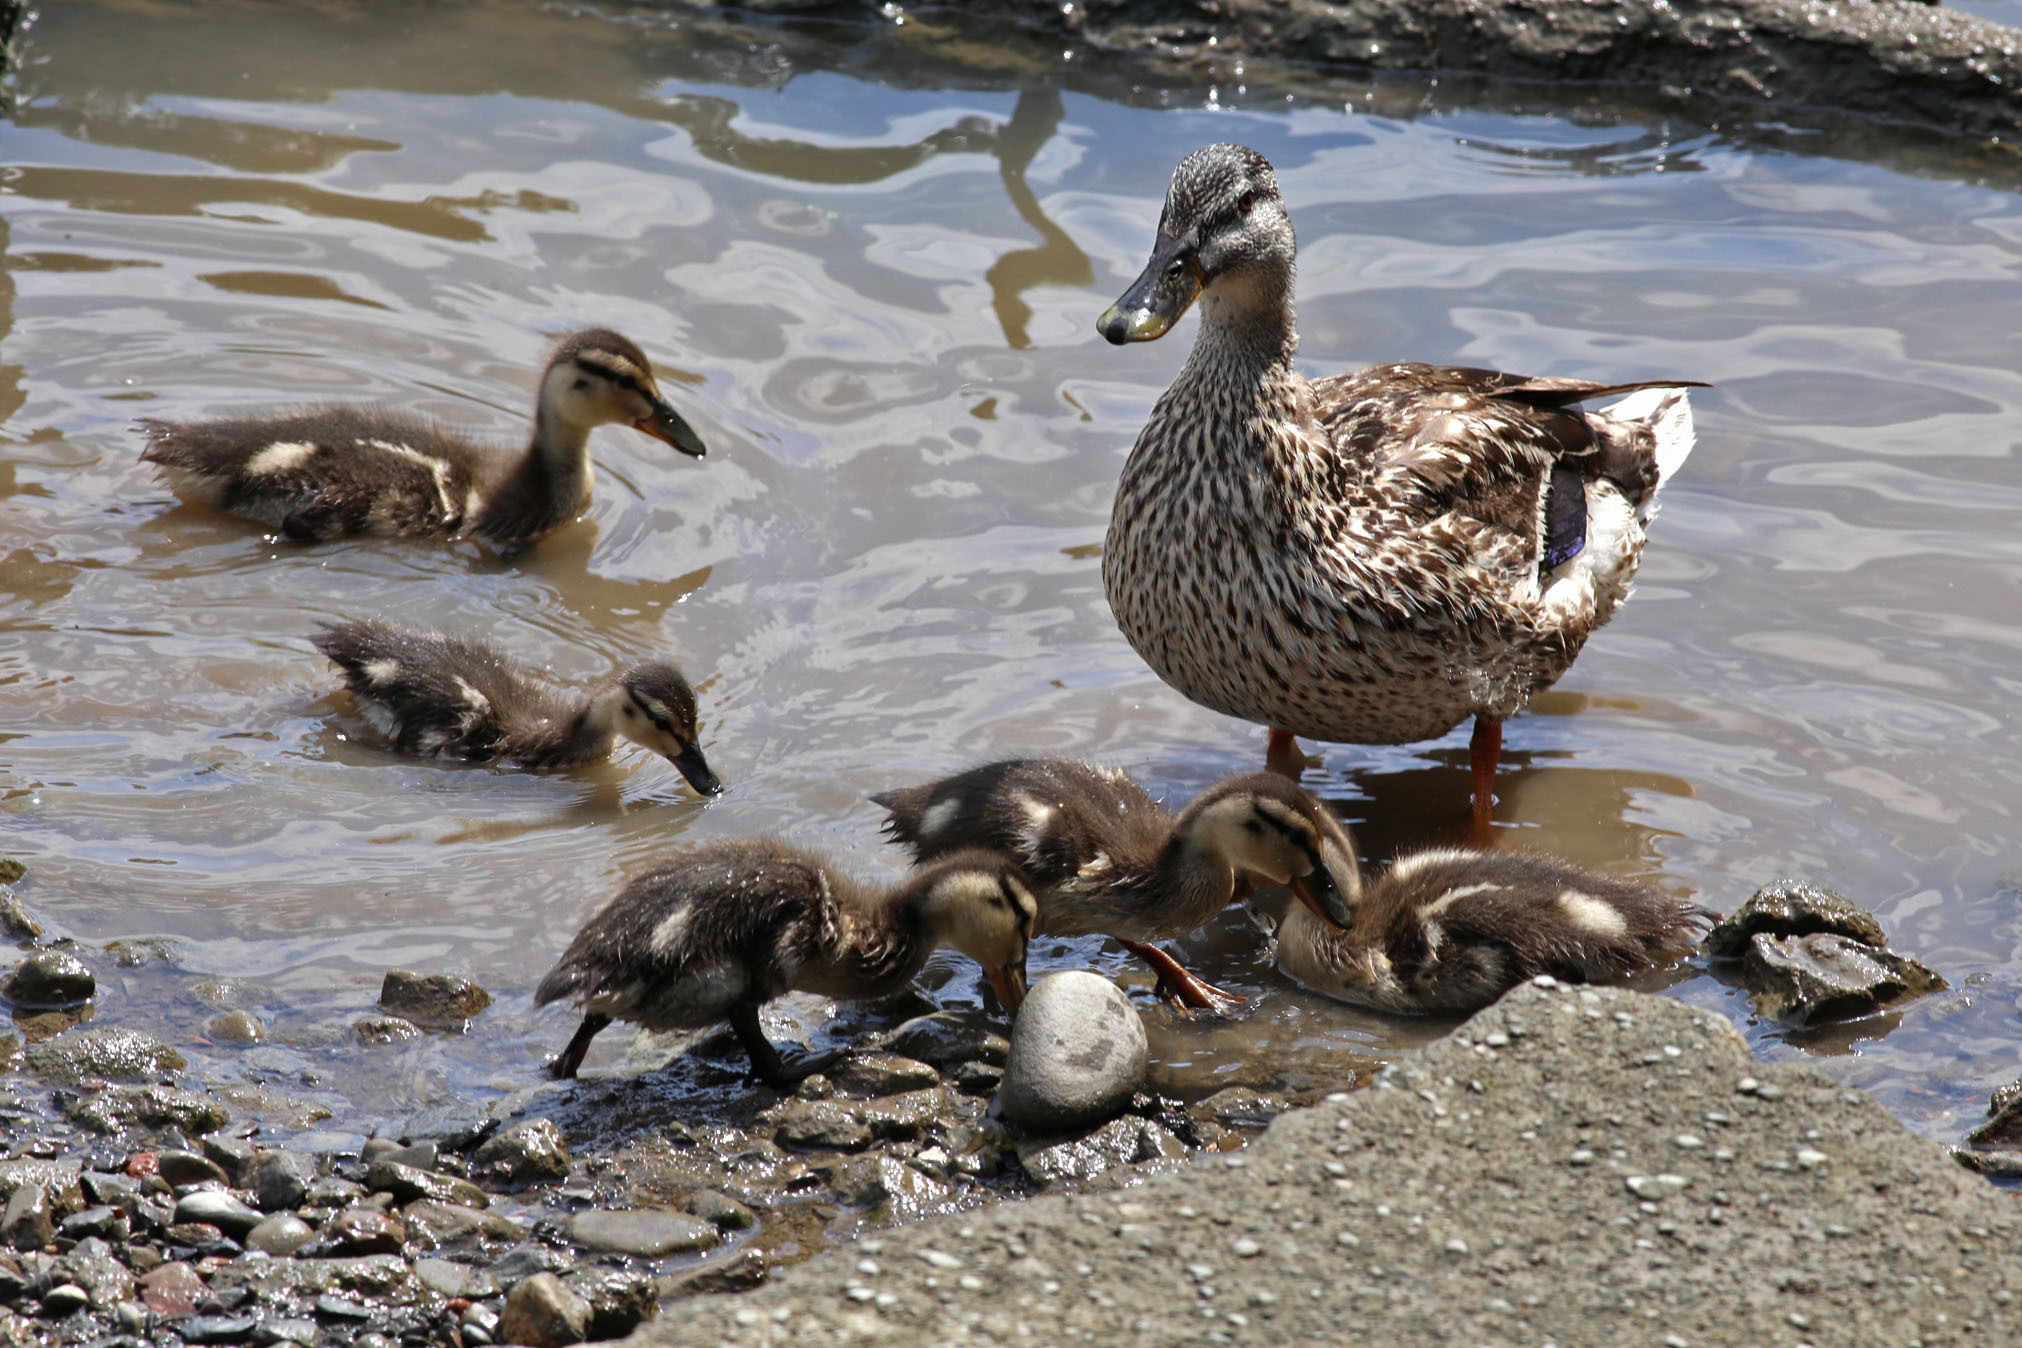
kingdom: Animalia
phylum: Chordata
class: Aves
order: Anseriformes
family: Anatidae
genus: Anas
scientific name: Anas platyrhynchos
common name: Mallard
